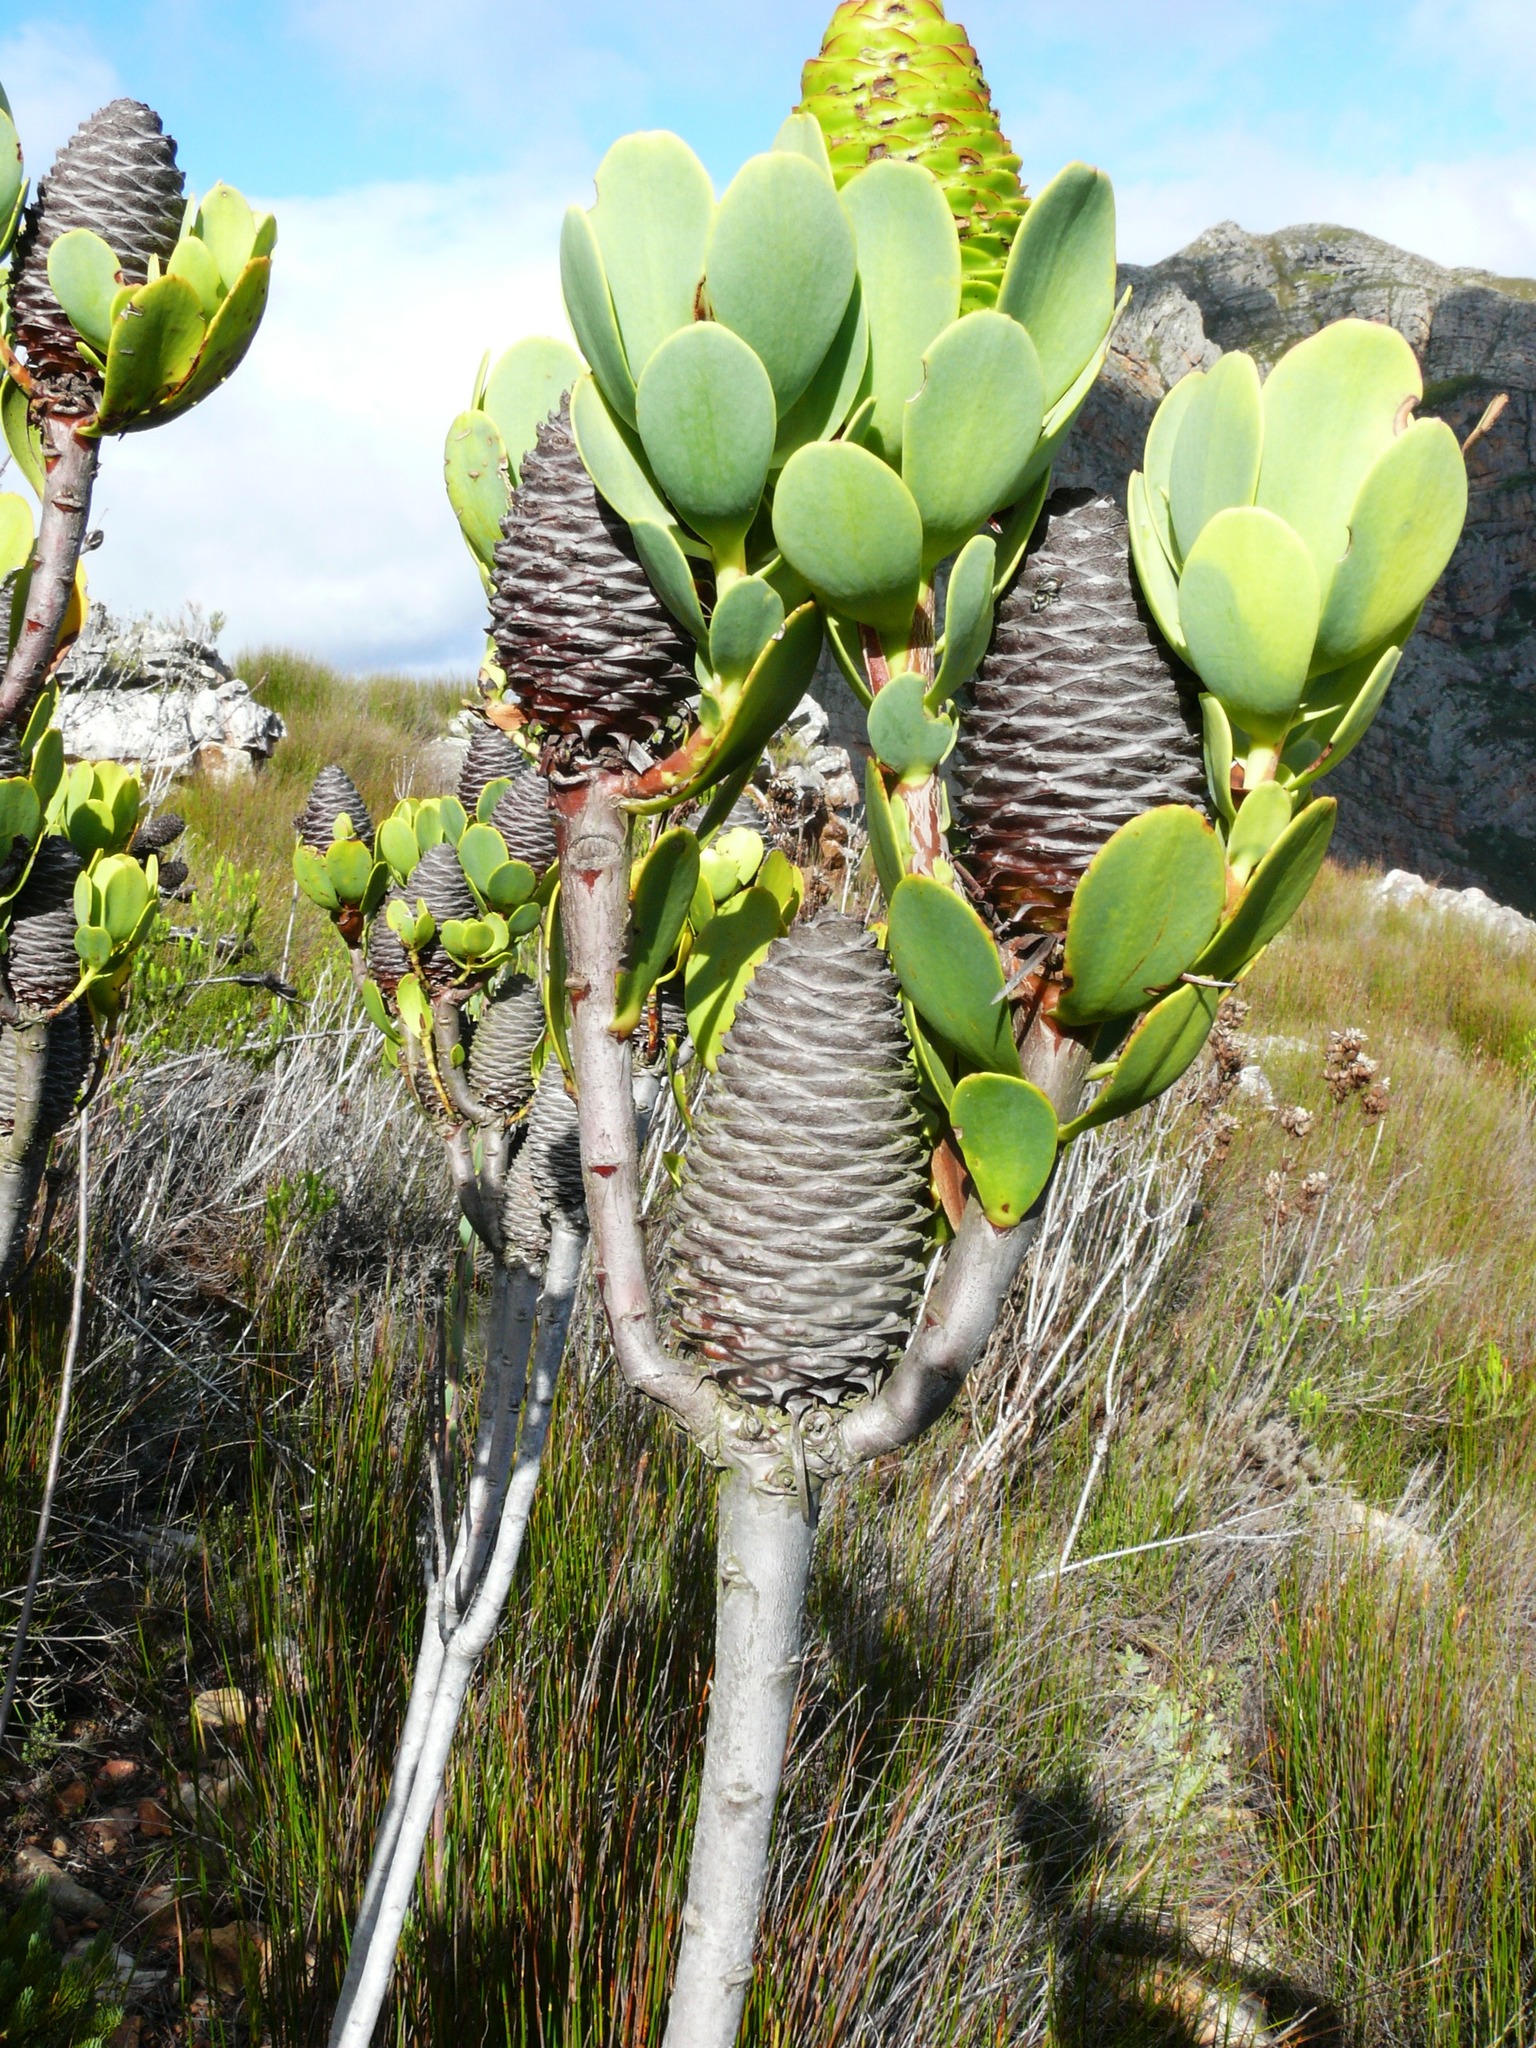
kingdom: Plantae
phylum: Tracheophyta
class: Magnoliopsida
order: Proteales
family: Proteaceae
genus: Leucadendron
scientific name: Leucadendron immoderatum
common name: Climax conebush
